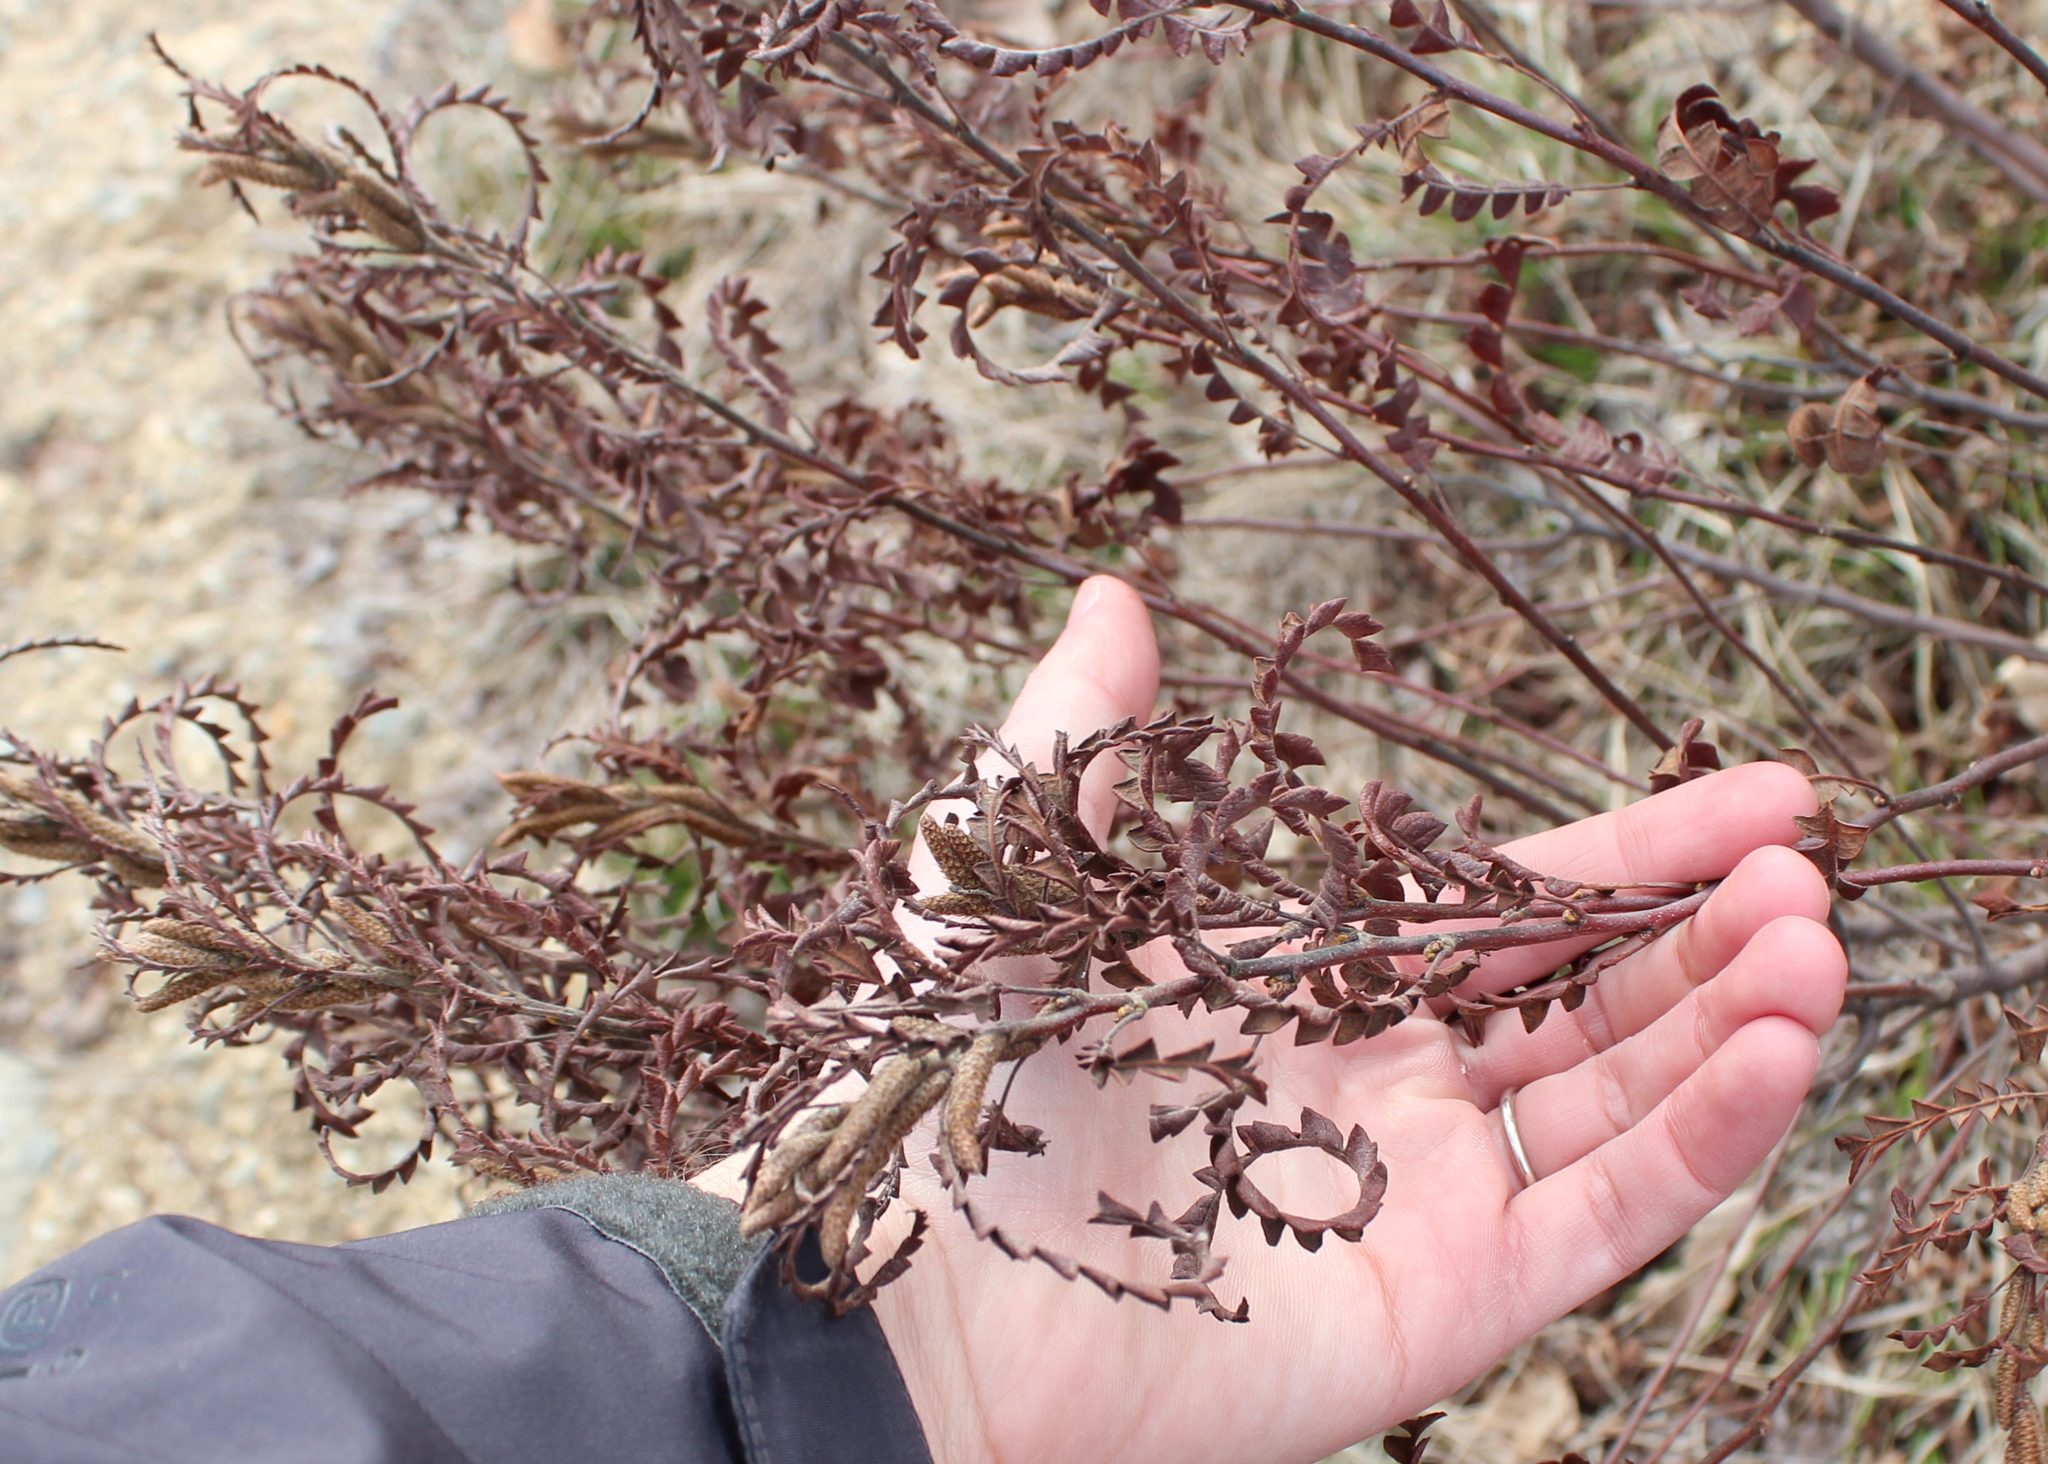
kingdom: Plantae
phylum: Tracheophyta
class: Magnoliopsida
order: Fagales
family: Myricaceae
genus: Comptonia
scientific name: Comptonia peregrina
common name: Sweet-fern
